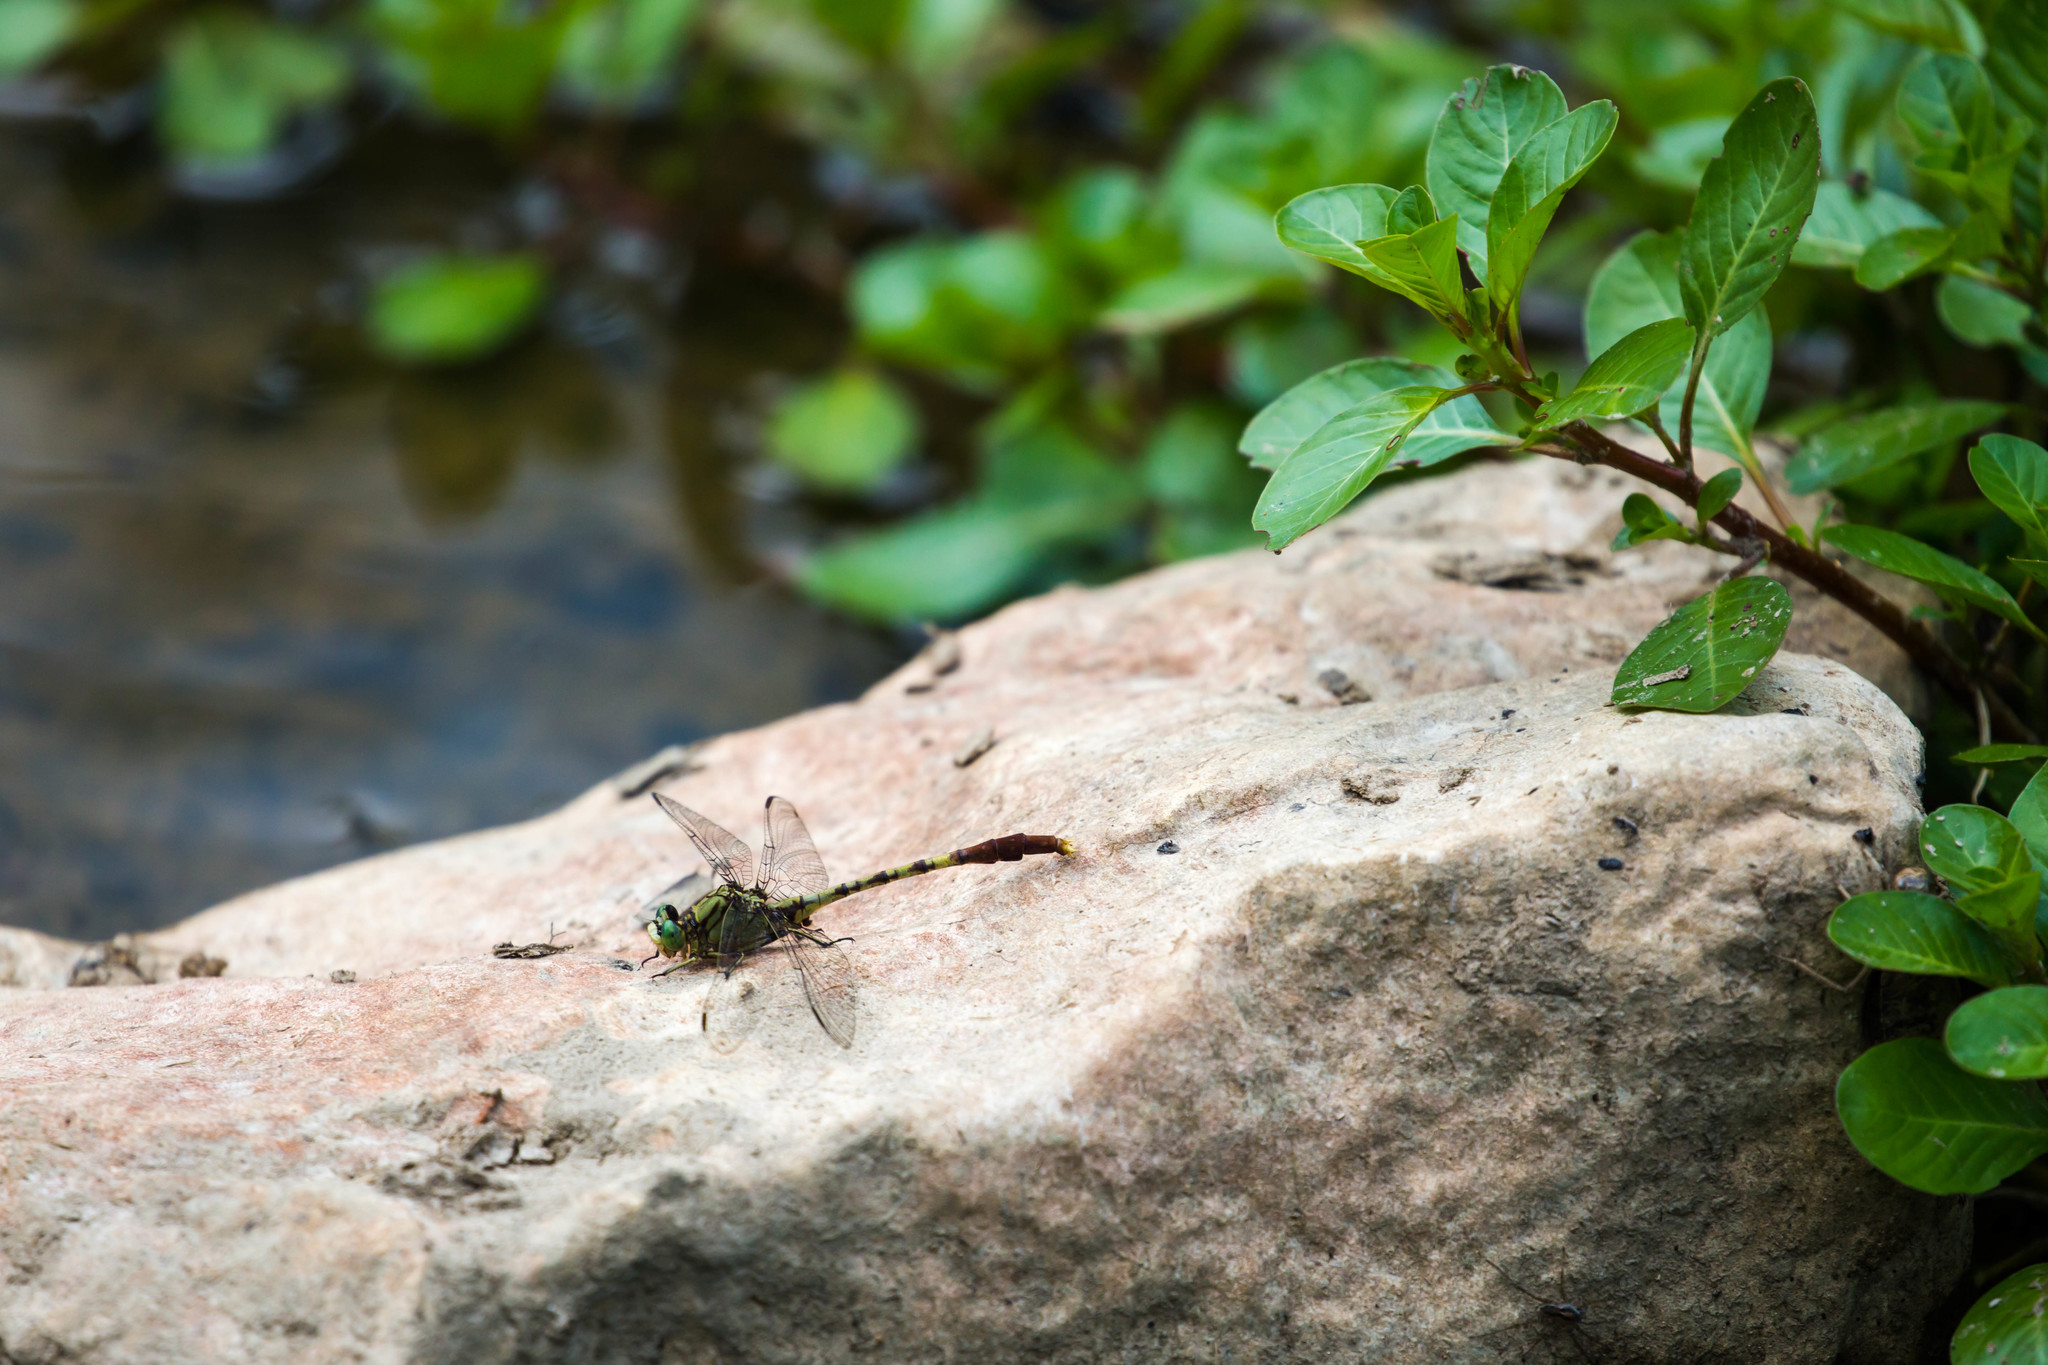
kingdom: Animalia
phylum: Arthropoda
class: Insecta
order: Odonata
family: Gomphidae
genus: Arigomphus
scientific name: Arigomphus submedianus
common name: Jade clubtail
